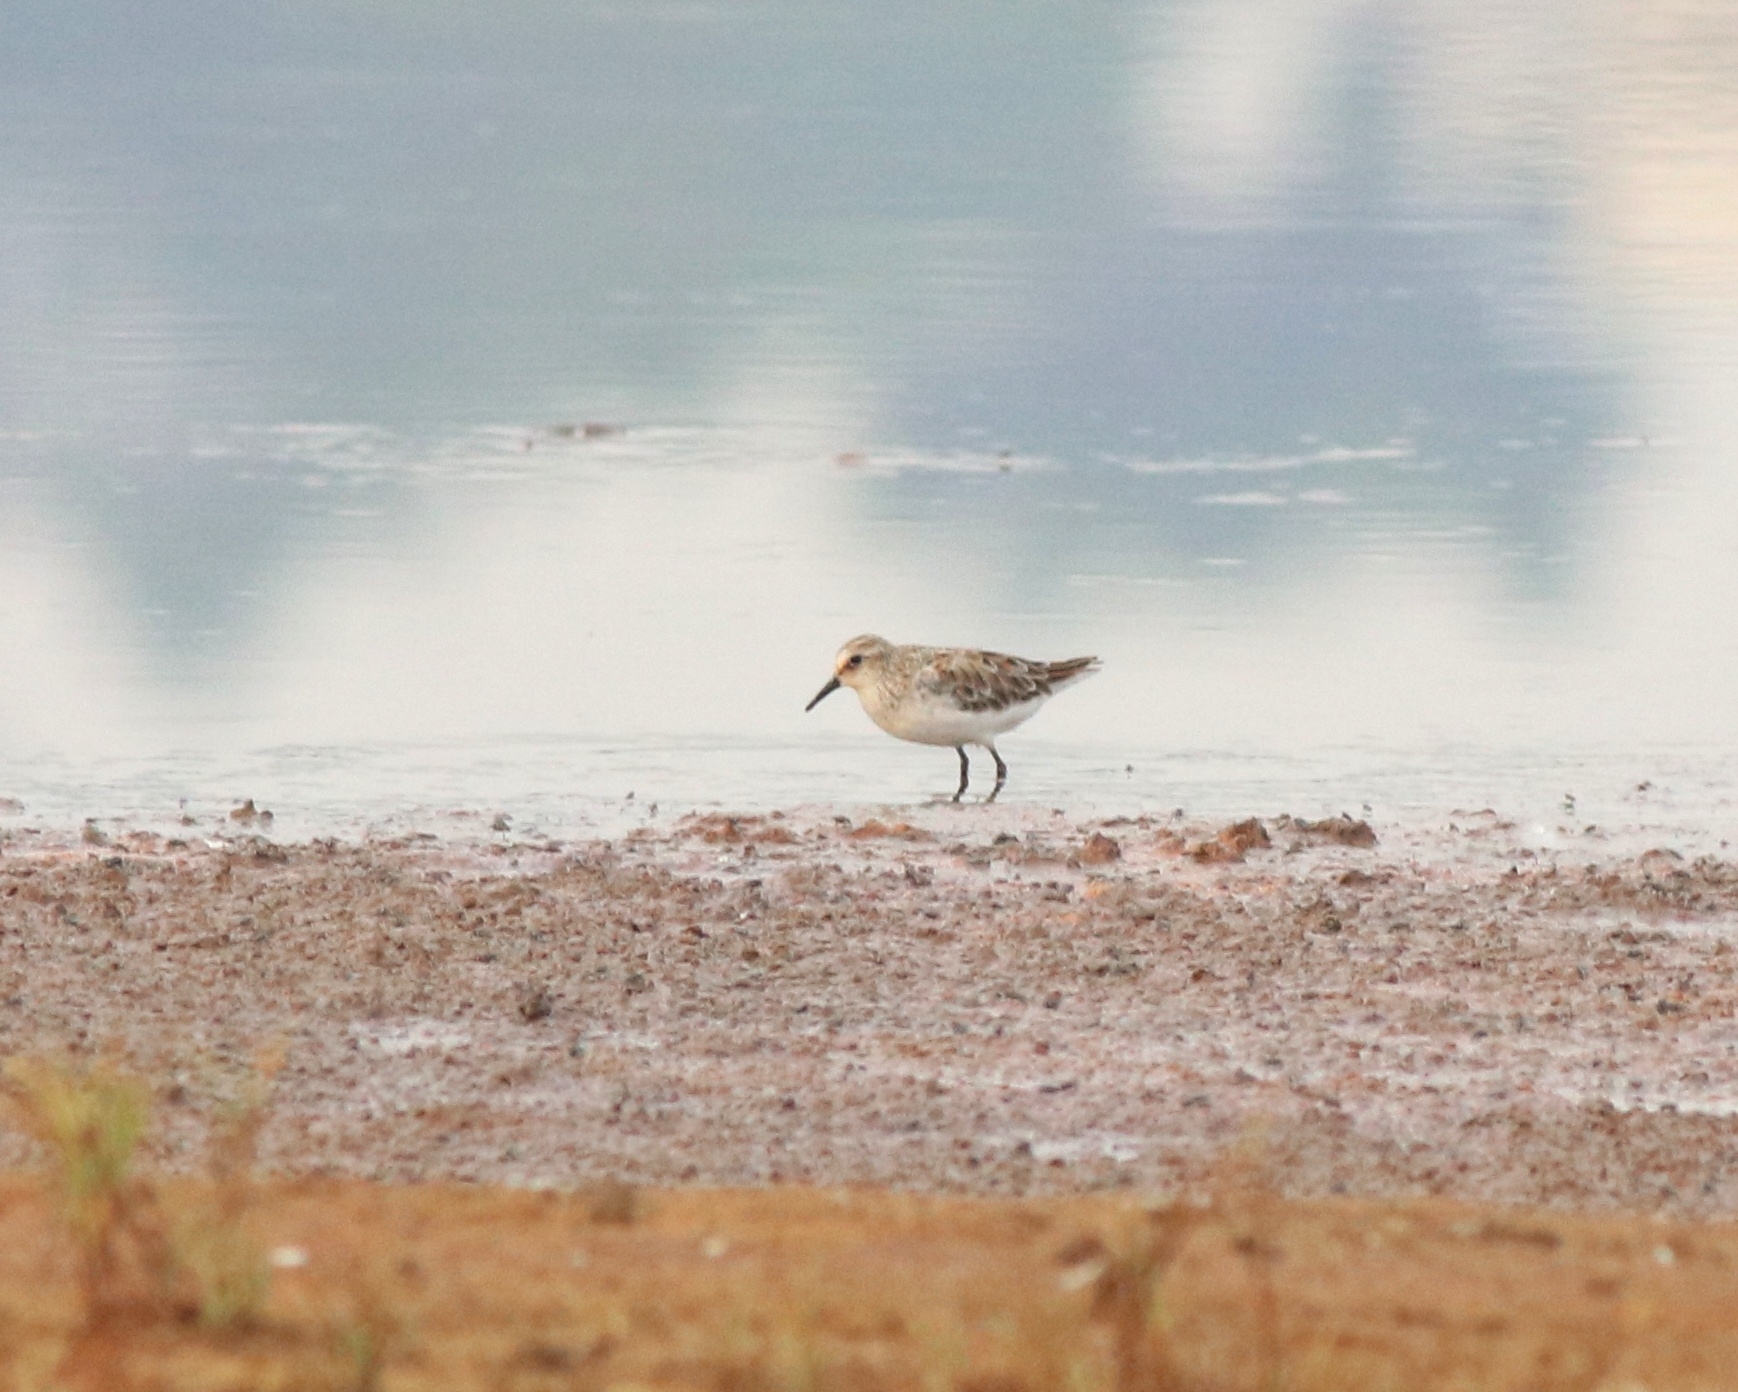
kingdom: Animalia
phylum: Chordata
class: Aves
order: Charadriiformes
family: Scolopacidae
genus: Calidris
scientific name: Calidris minuta
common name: Little stint
